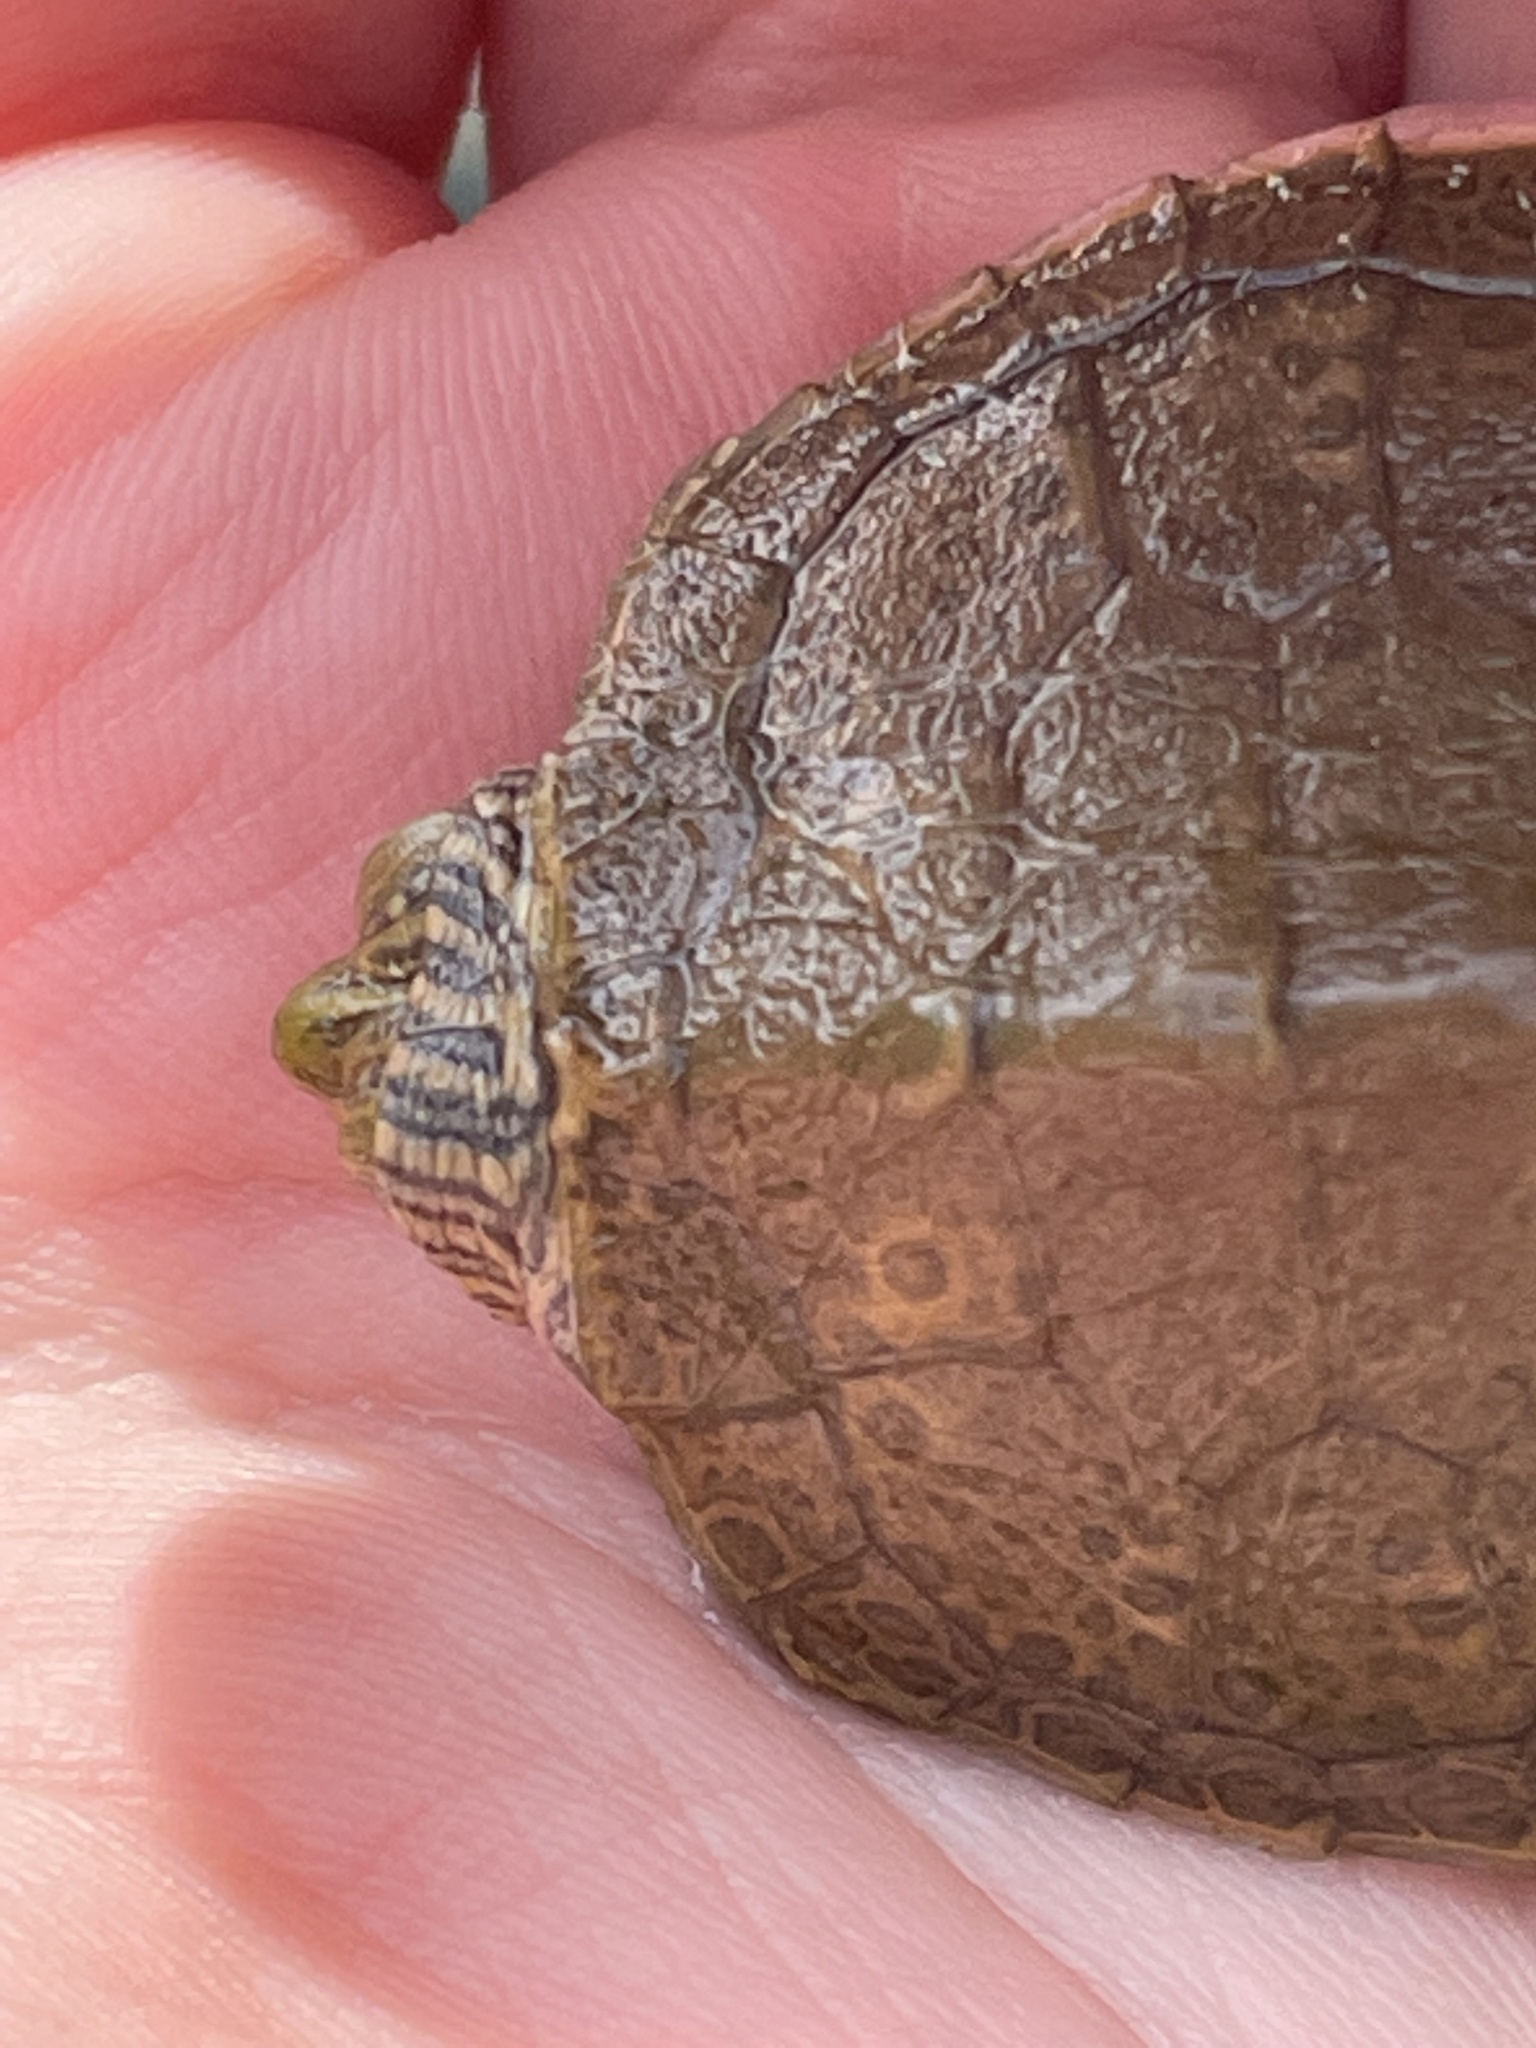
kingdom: Animalia
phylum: Chordata
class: Testudines
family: Emydidae
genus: Graptemys
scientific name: Graptemys geographica
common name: Common map turtle
